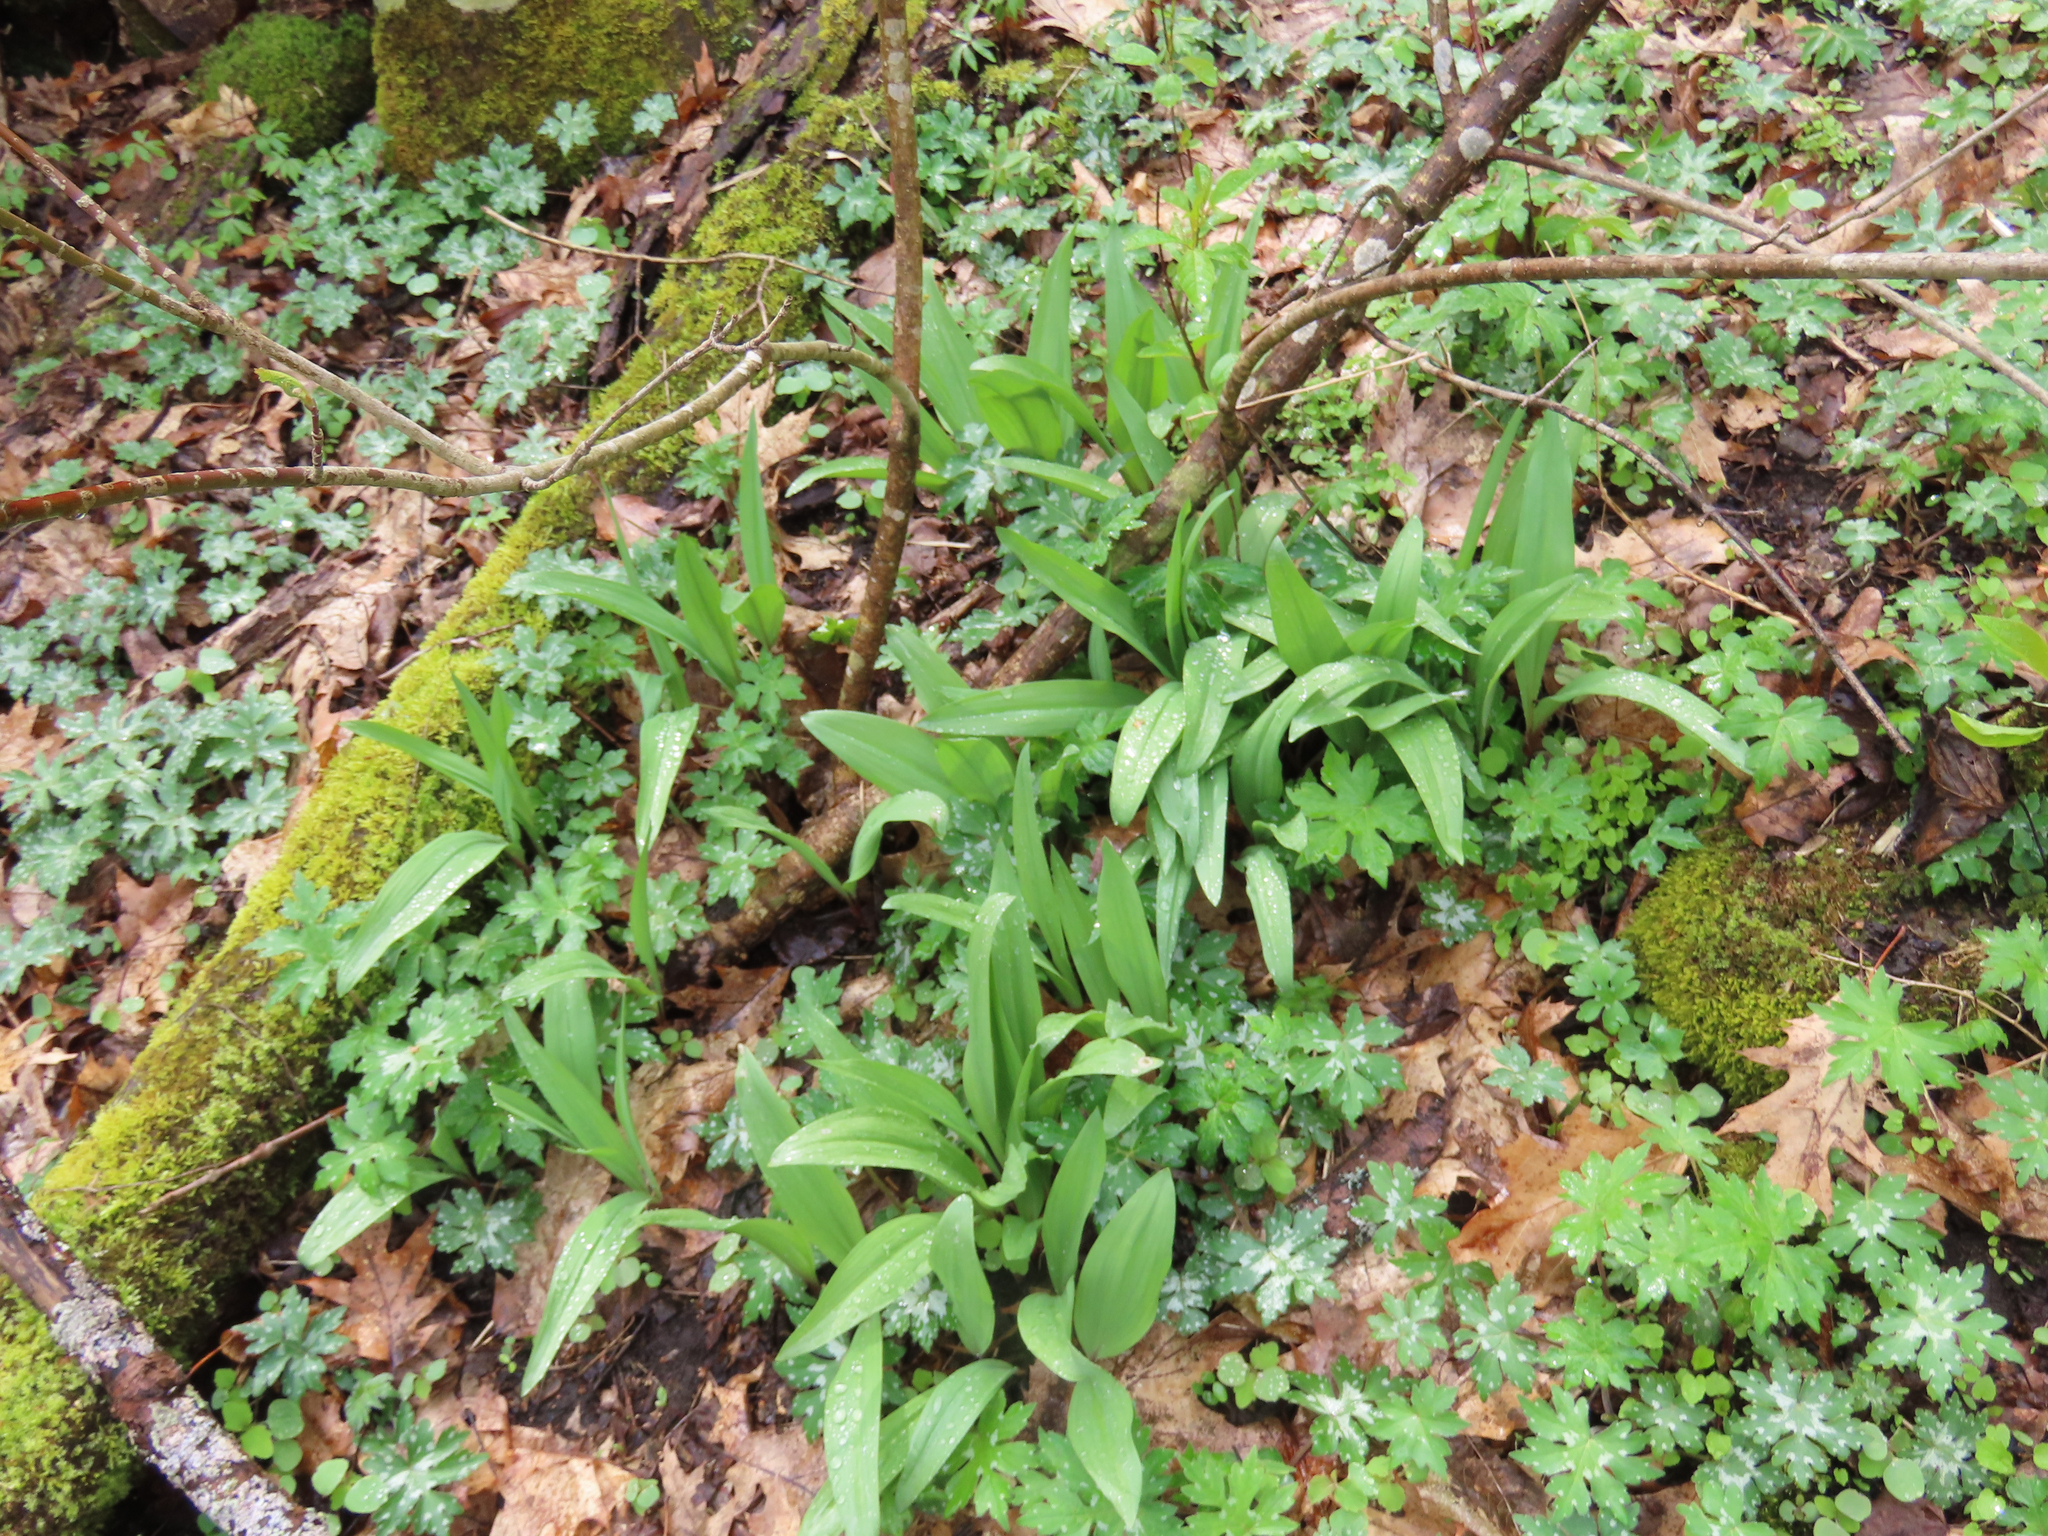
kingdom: Plantae
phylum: Tracheophyta
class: Liliopsida
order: Asparagales
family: Amaryllidaceae
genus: Allium
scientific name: Allium tricoccum
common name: Ramp
